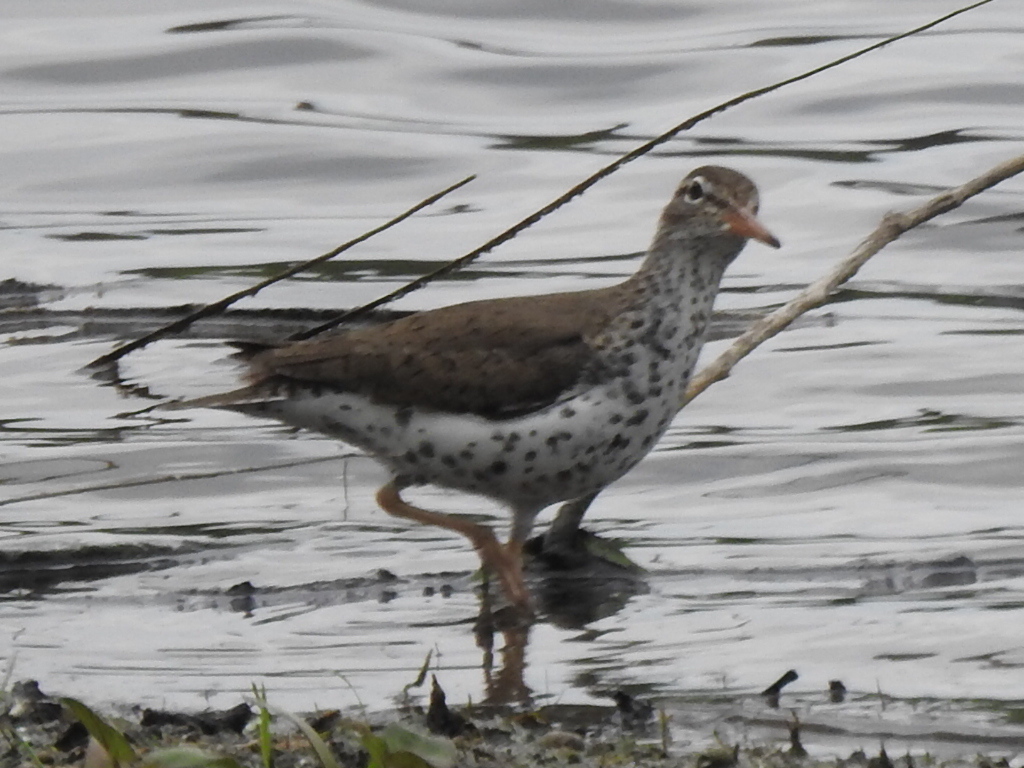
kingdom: Animalia
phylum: Chordata
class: Aves
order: Charadriiformes
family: Scolopacidae
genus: Actitis
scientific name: Actitis macularius
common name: Spotted sandpiper
